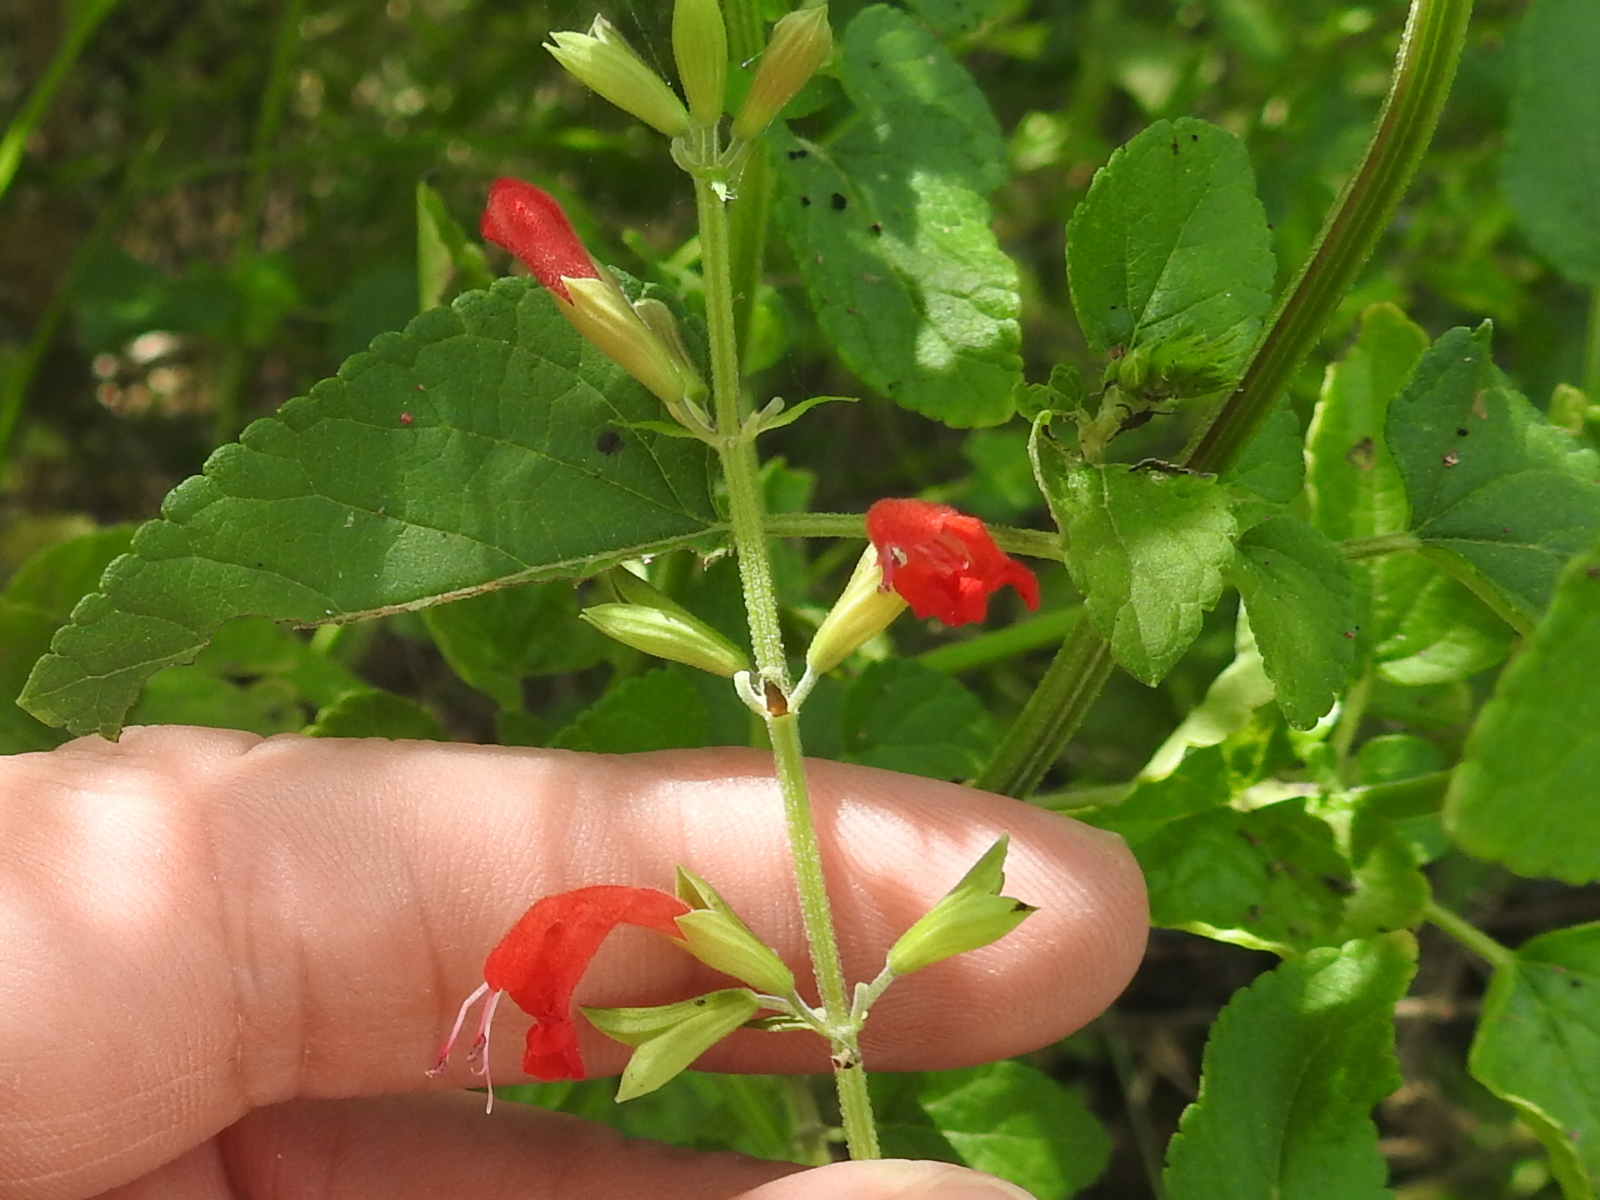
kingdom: Plantae
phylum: Tracheophyta
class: Magnoliopsida
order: Lamiales
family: Lamiaceae
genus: Salvia
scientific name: Salvia coccinea
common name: Blood sage
